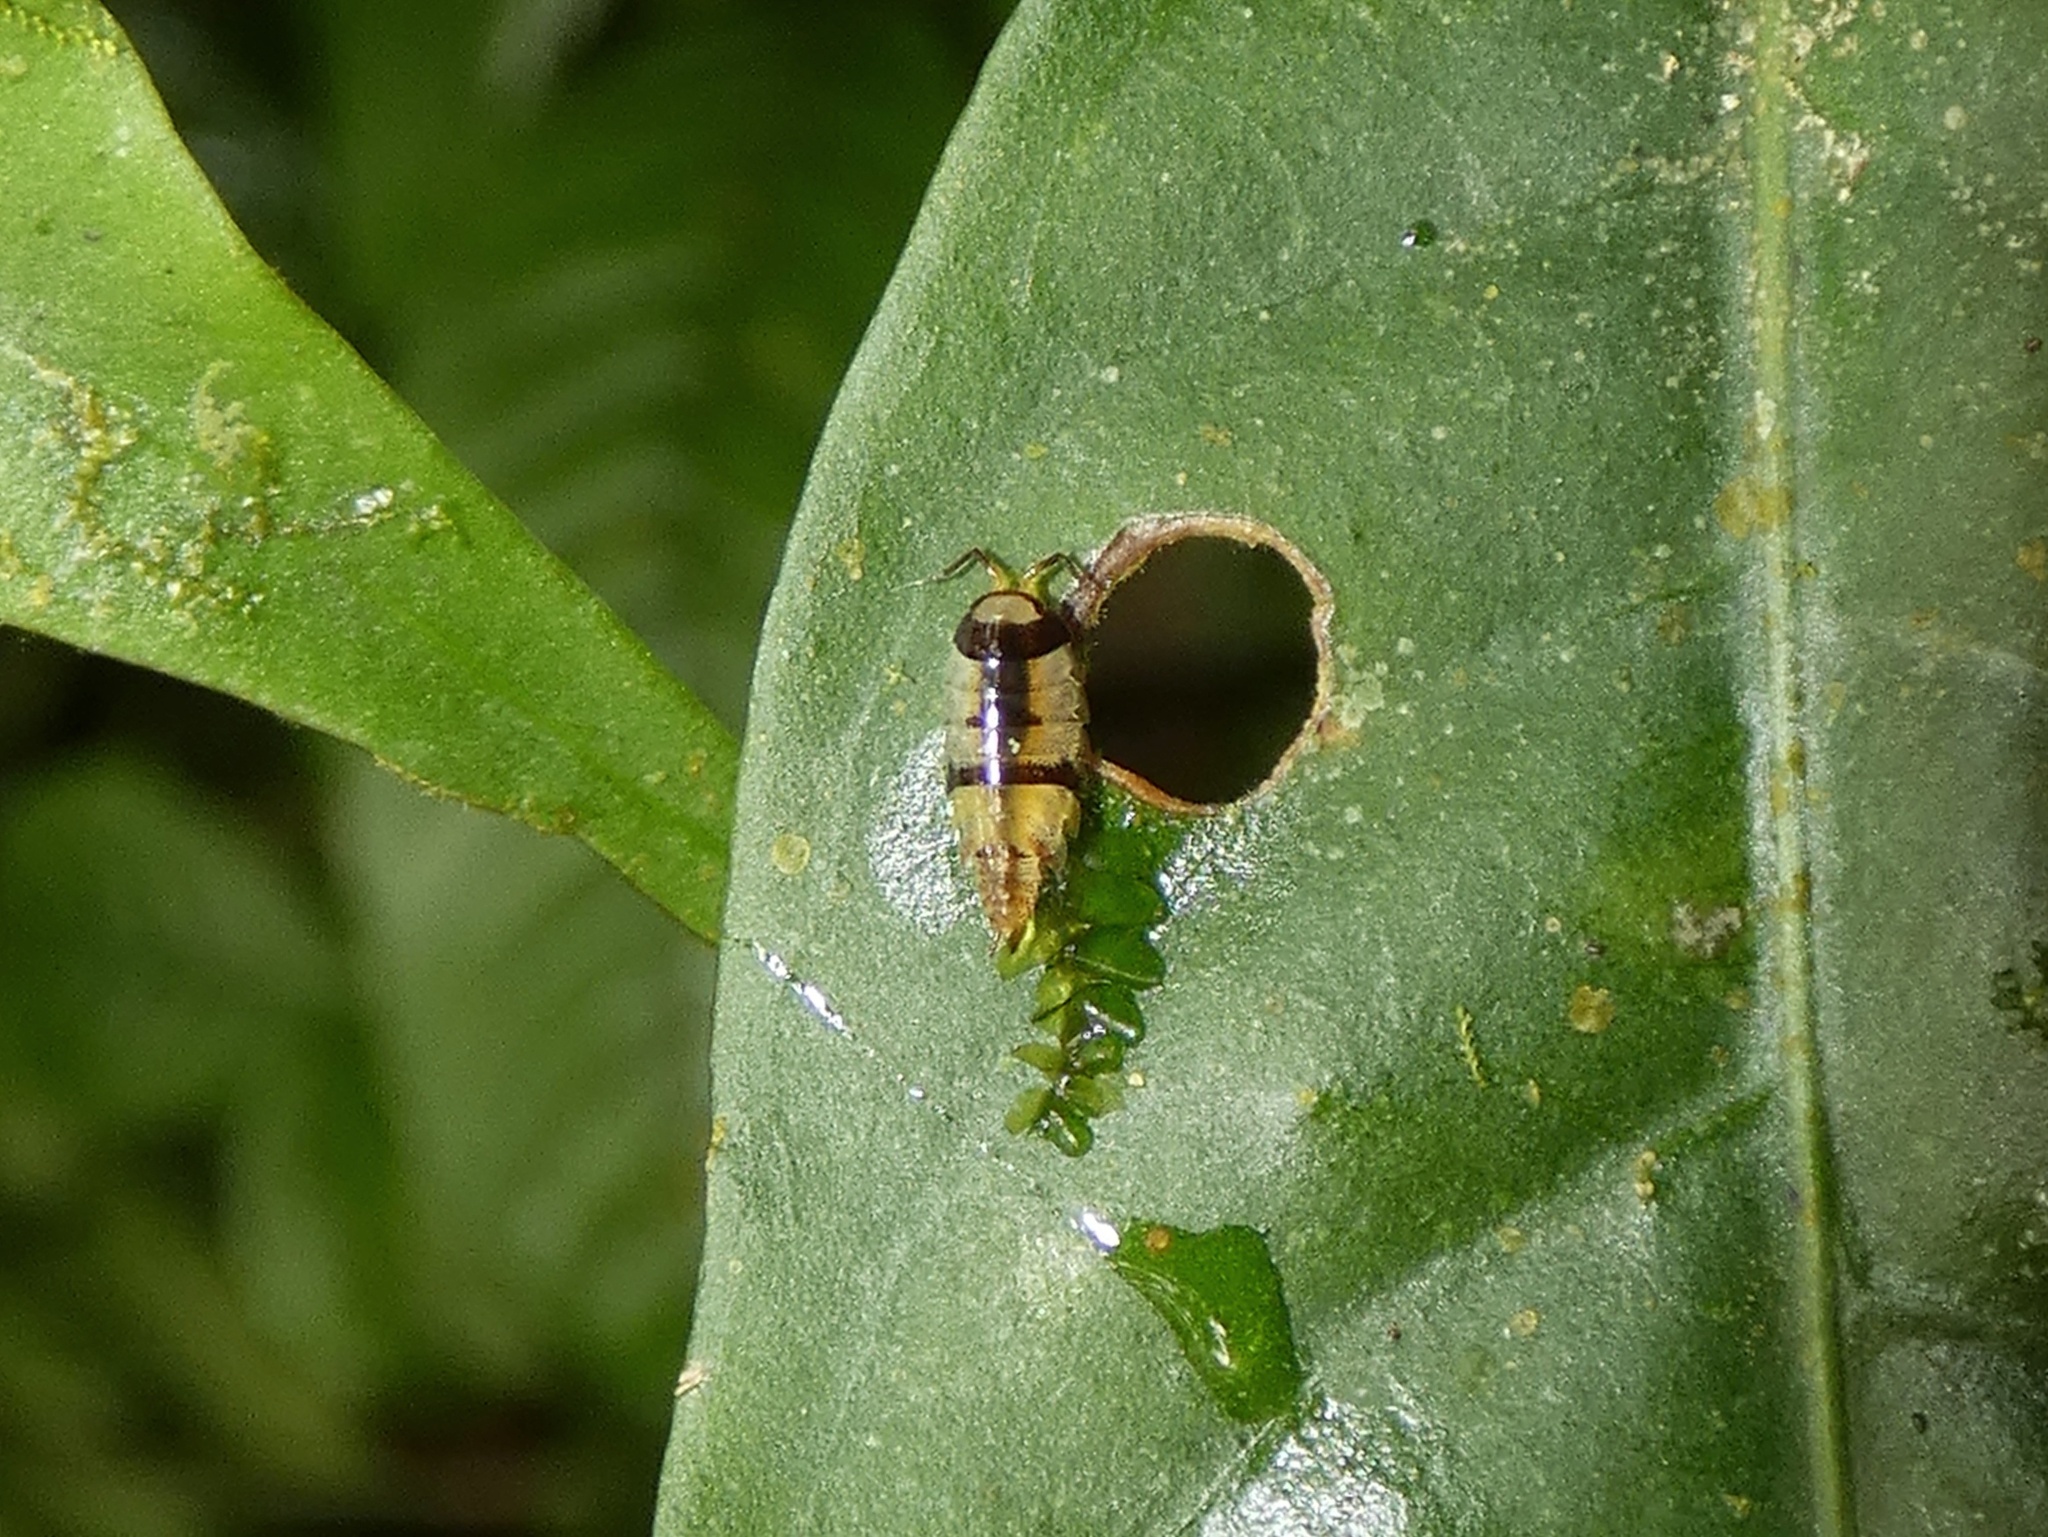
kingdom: Animalia
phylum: Arthropoda
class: Malacostraca
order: Isopoda
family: Philosciidae
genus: Ischioscia
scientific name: Ischioscia zebricolor
